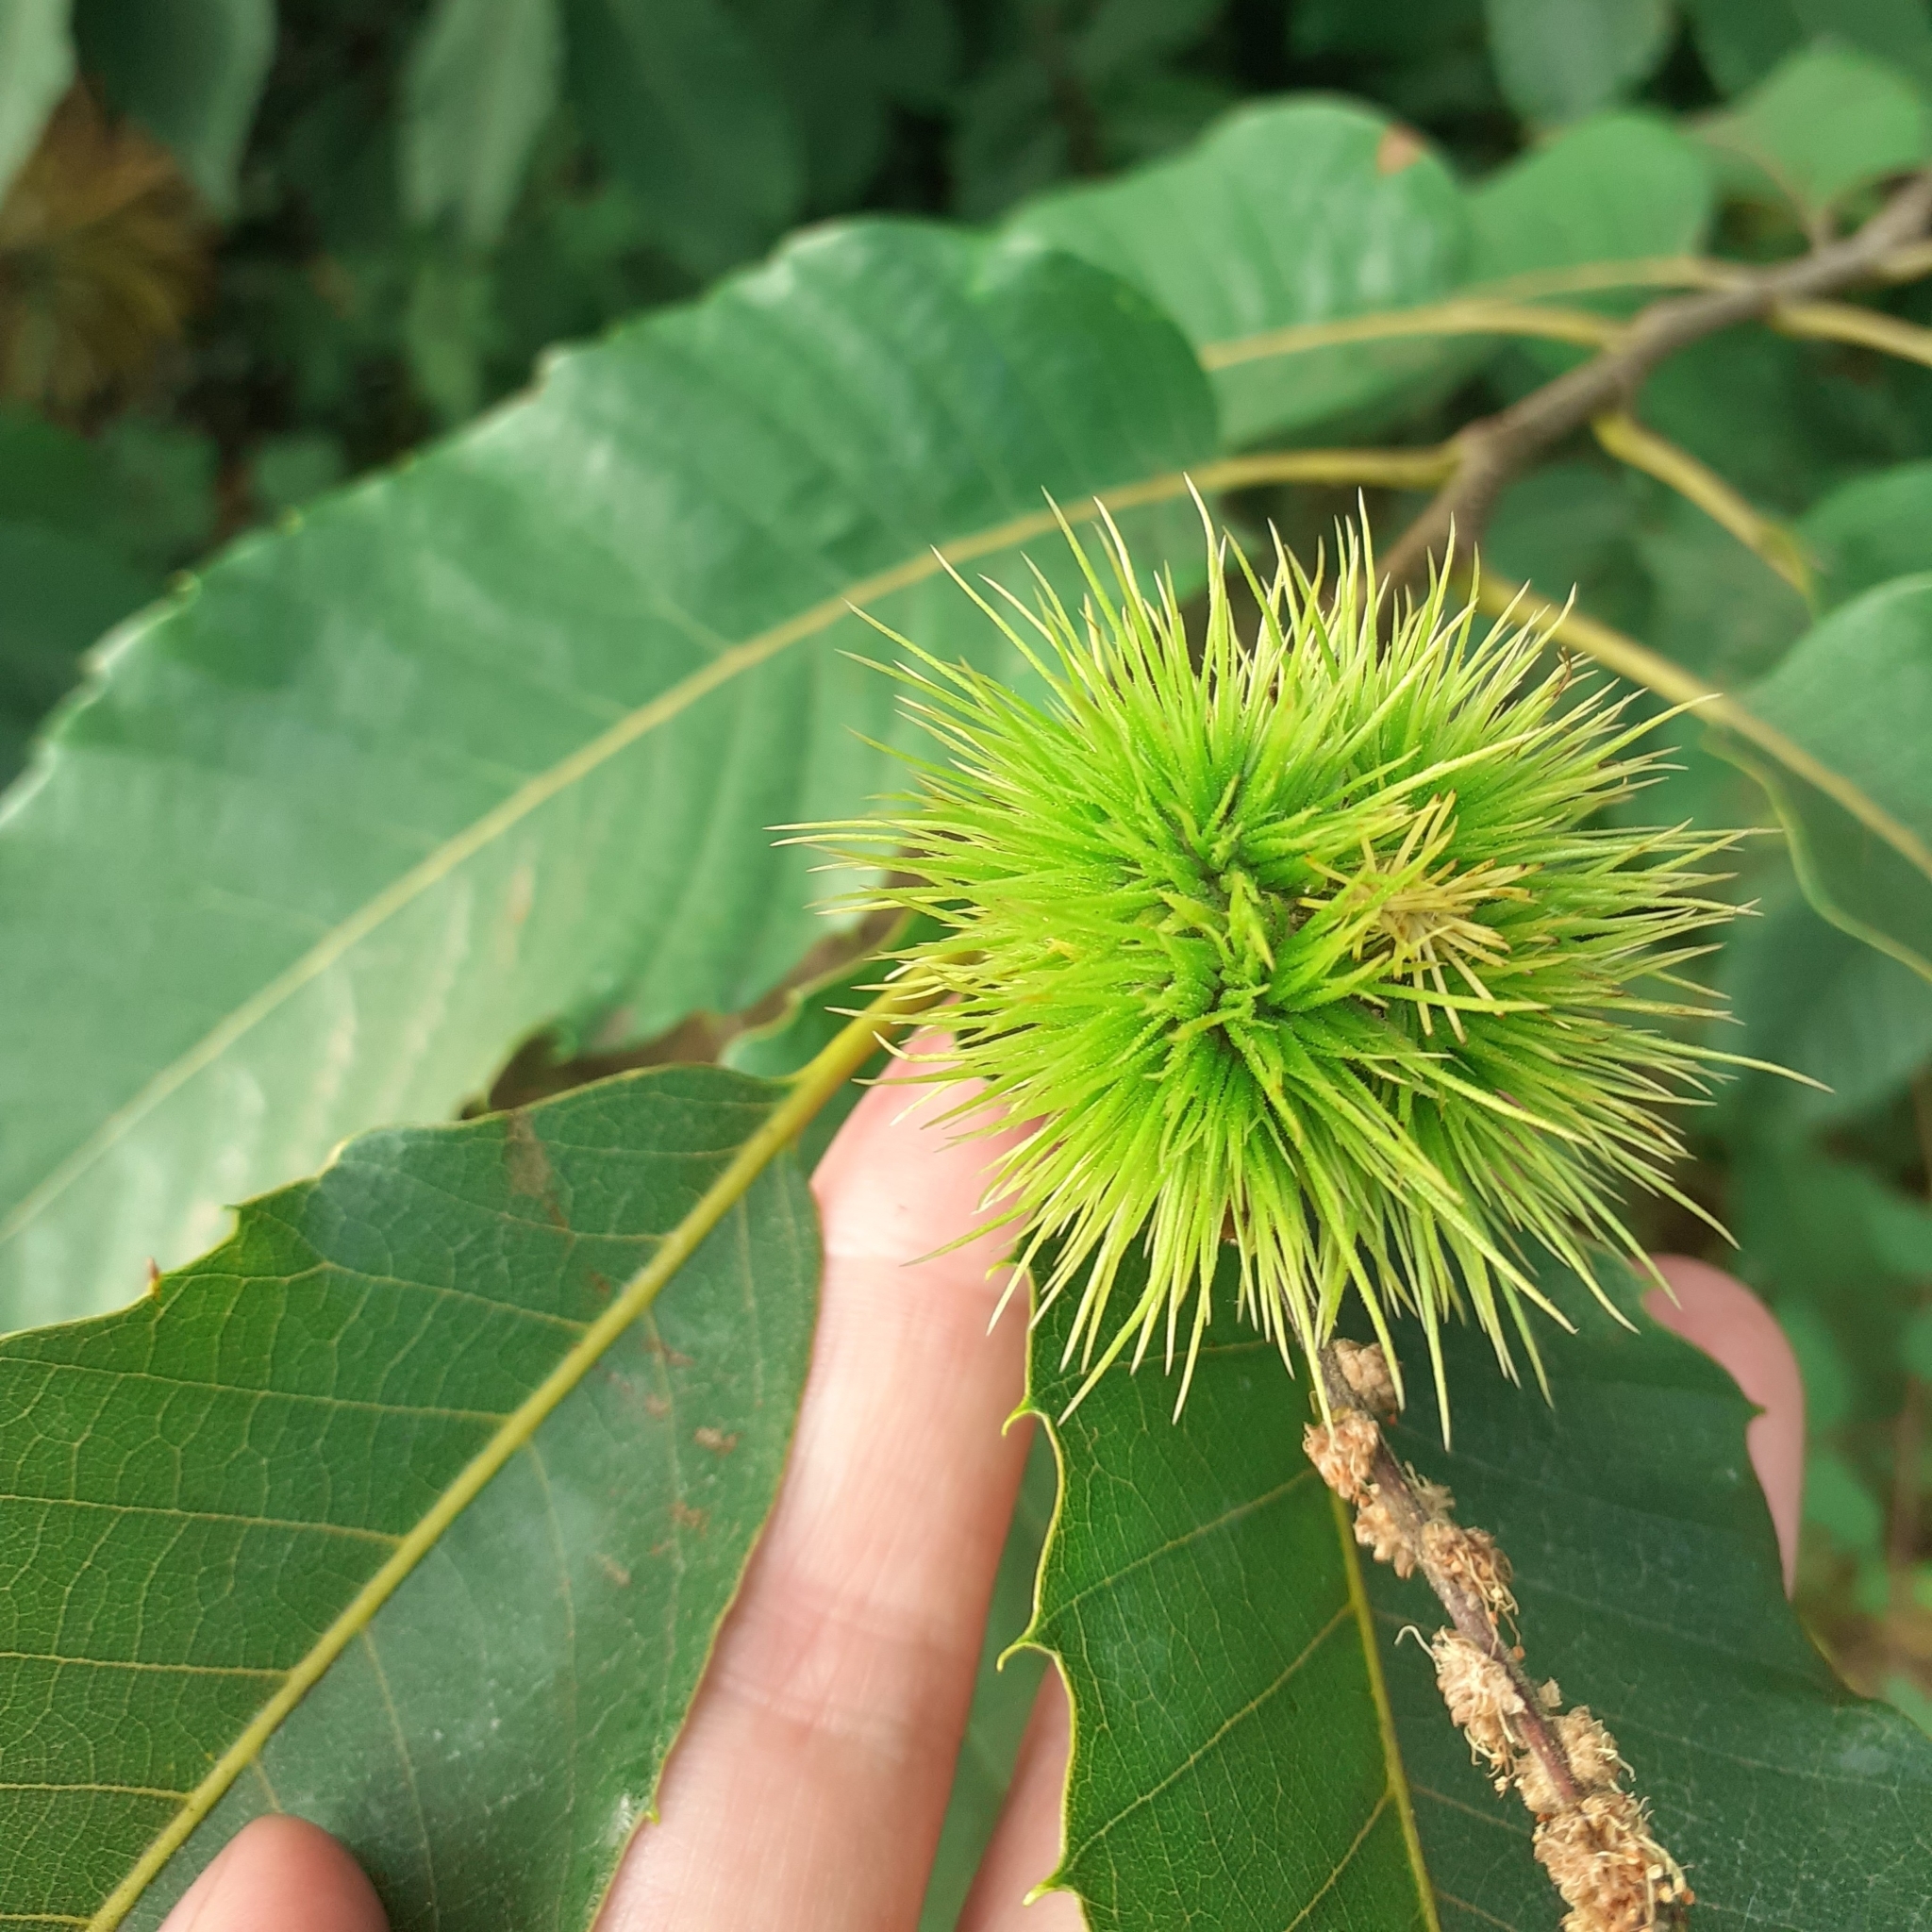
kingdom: Plantae
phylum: Tracheophyta
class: Magnoliopsida
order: Fagales
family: Fagaceae
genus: Castanea
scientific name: Castanea sativa
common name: Sweet chestnut
